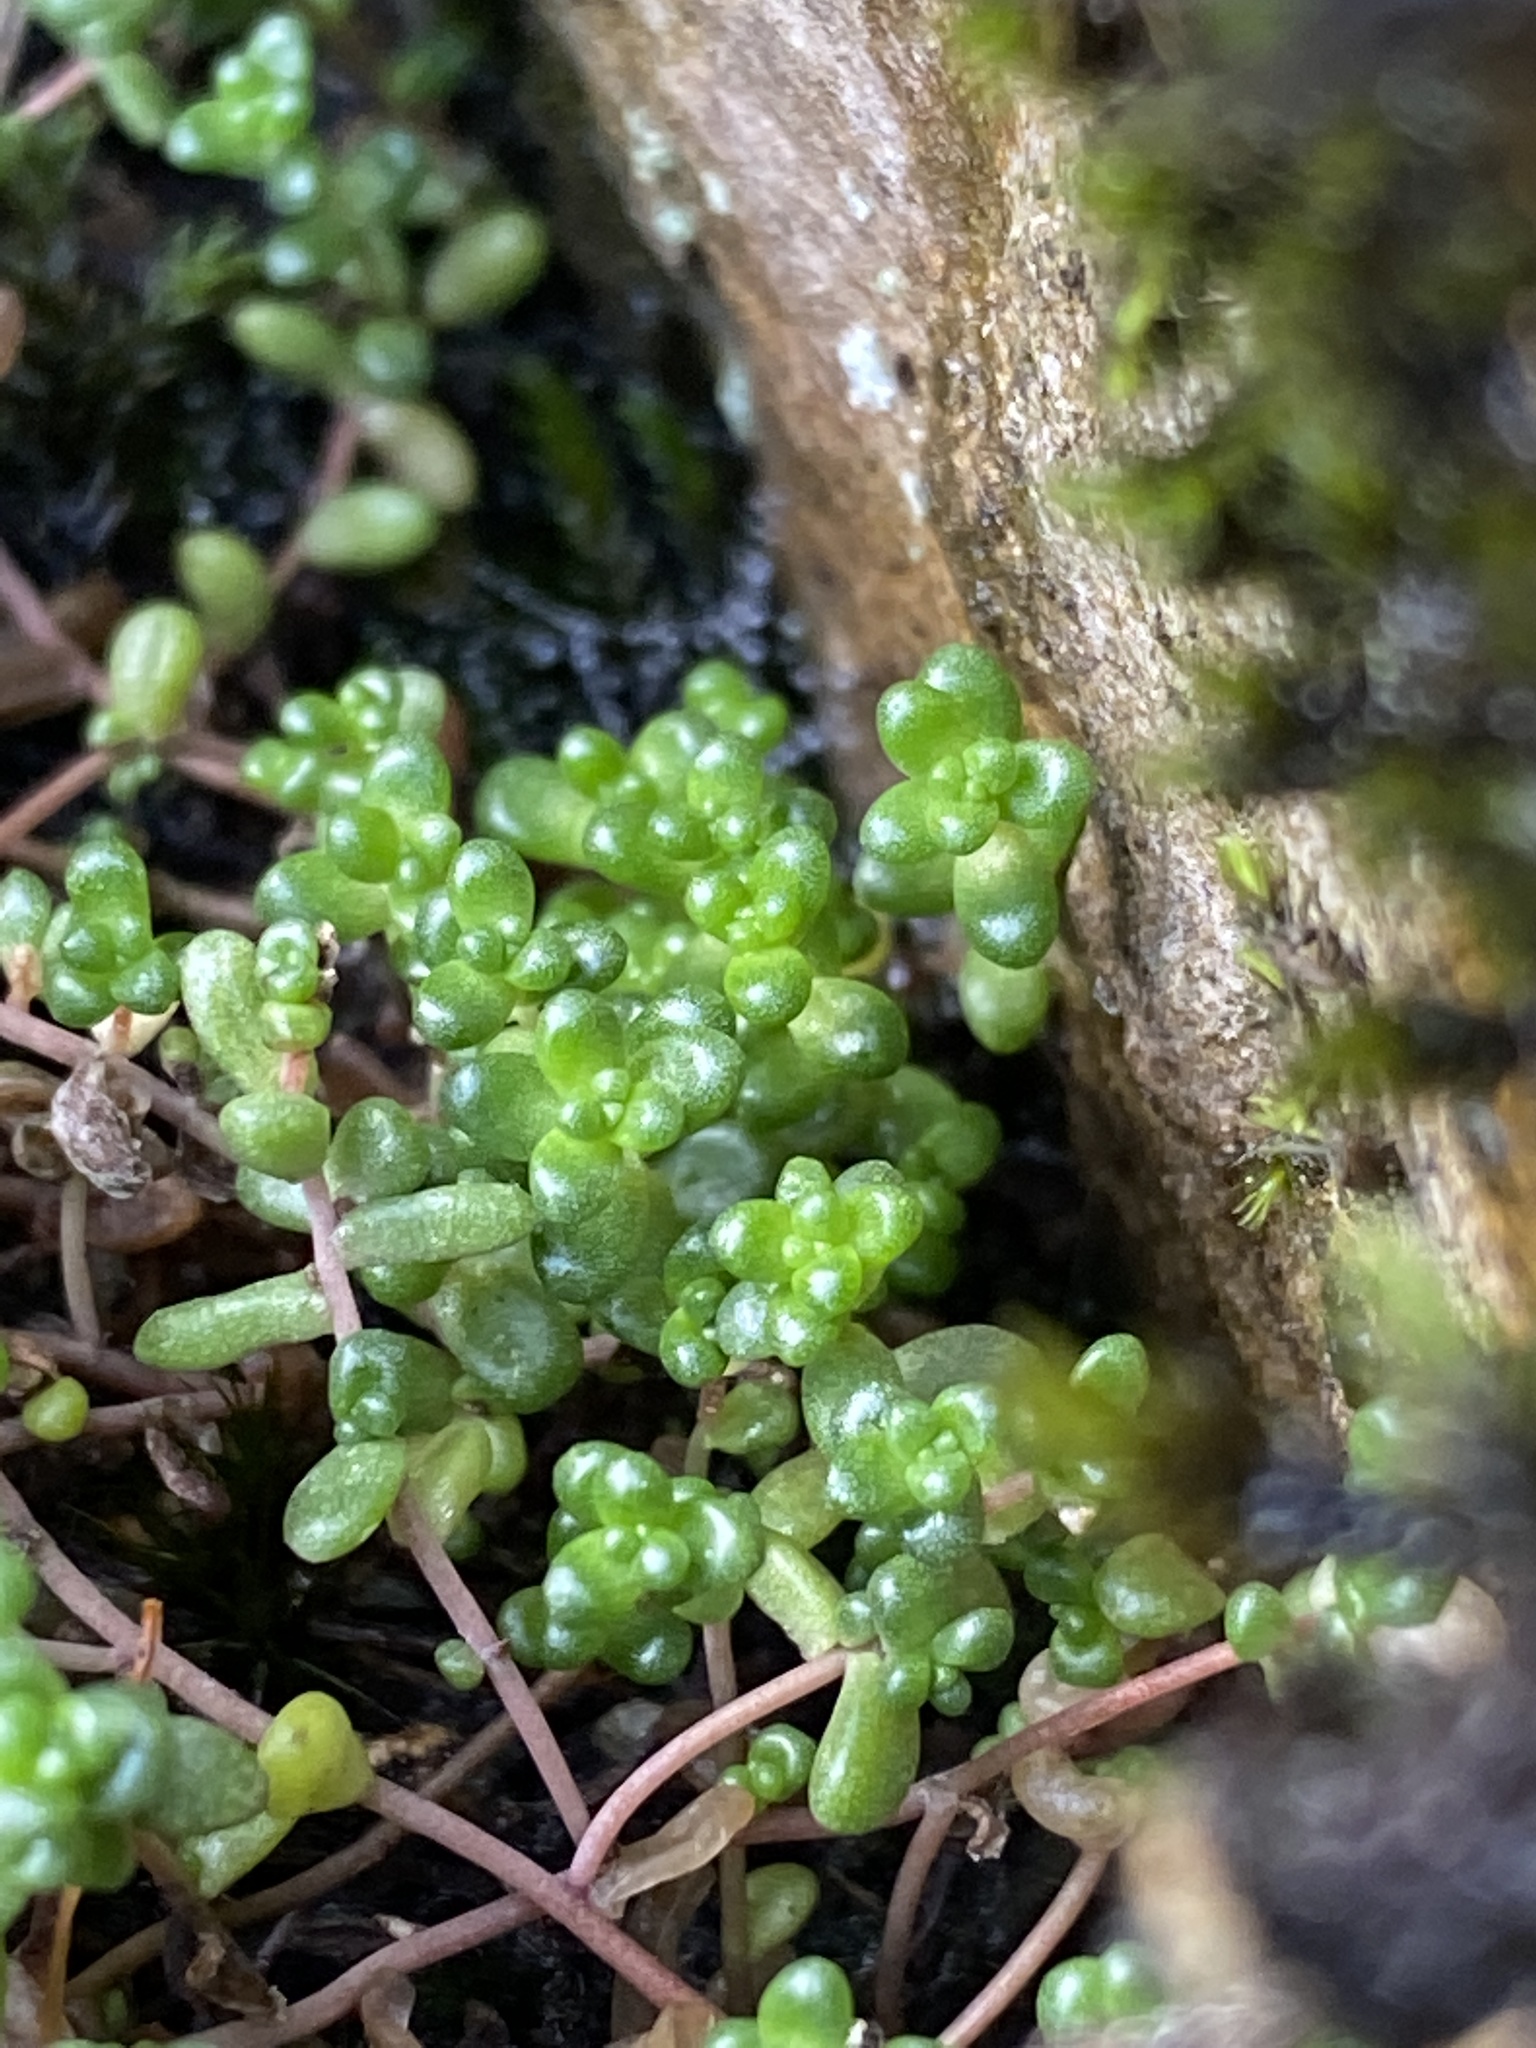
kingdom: Plantae
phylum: Tracheophyta
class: Magnoliopsida
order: Saxifragales
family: Crassulaceae
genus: Sedum
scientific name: Sedum anglicum
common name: English stonecrop
